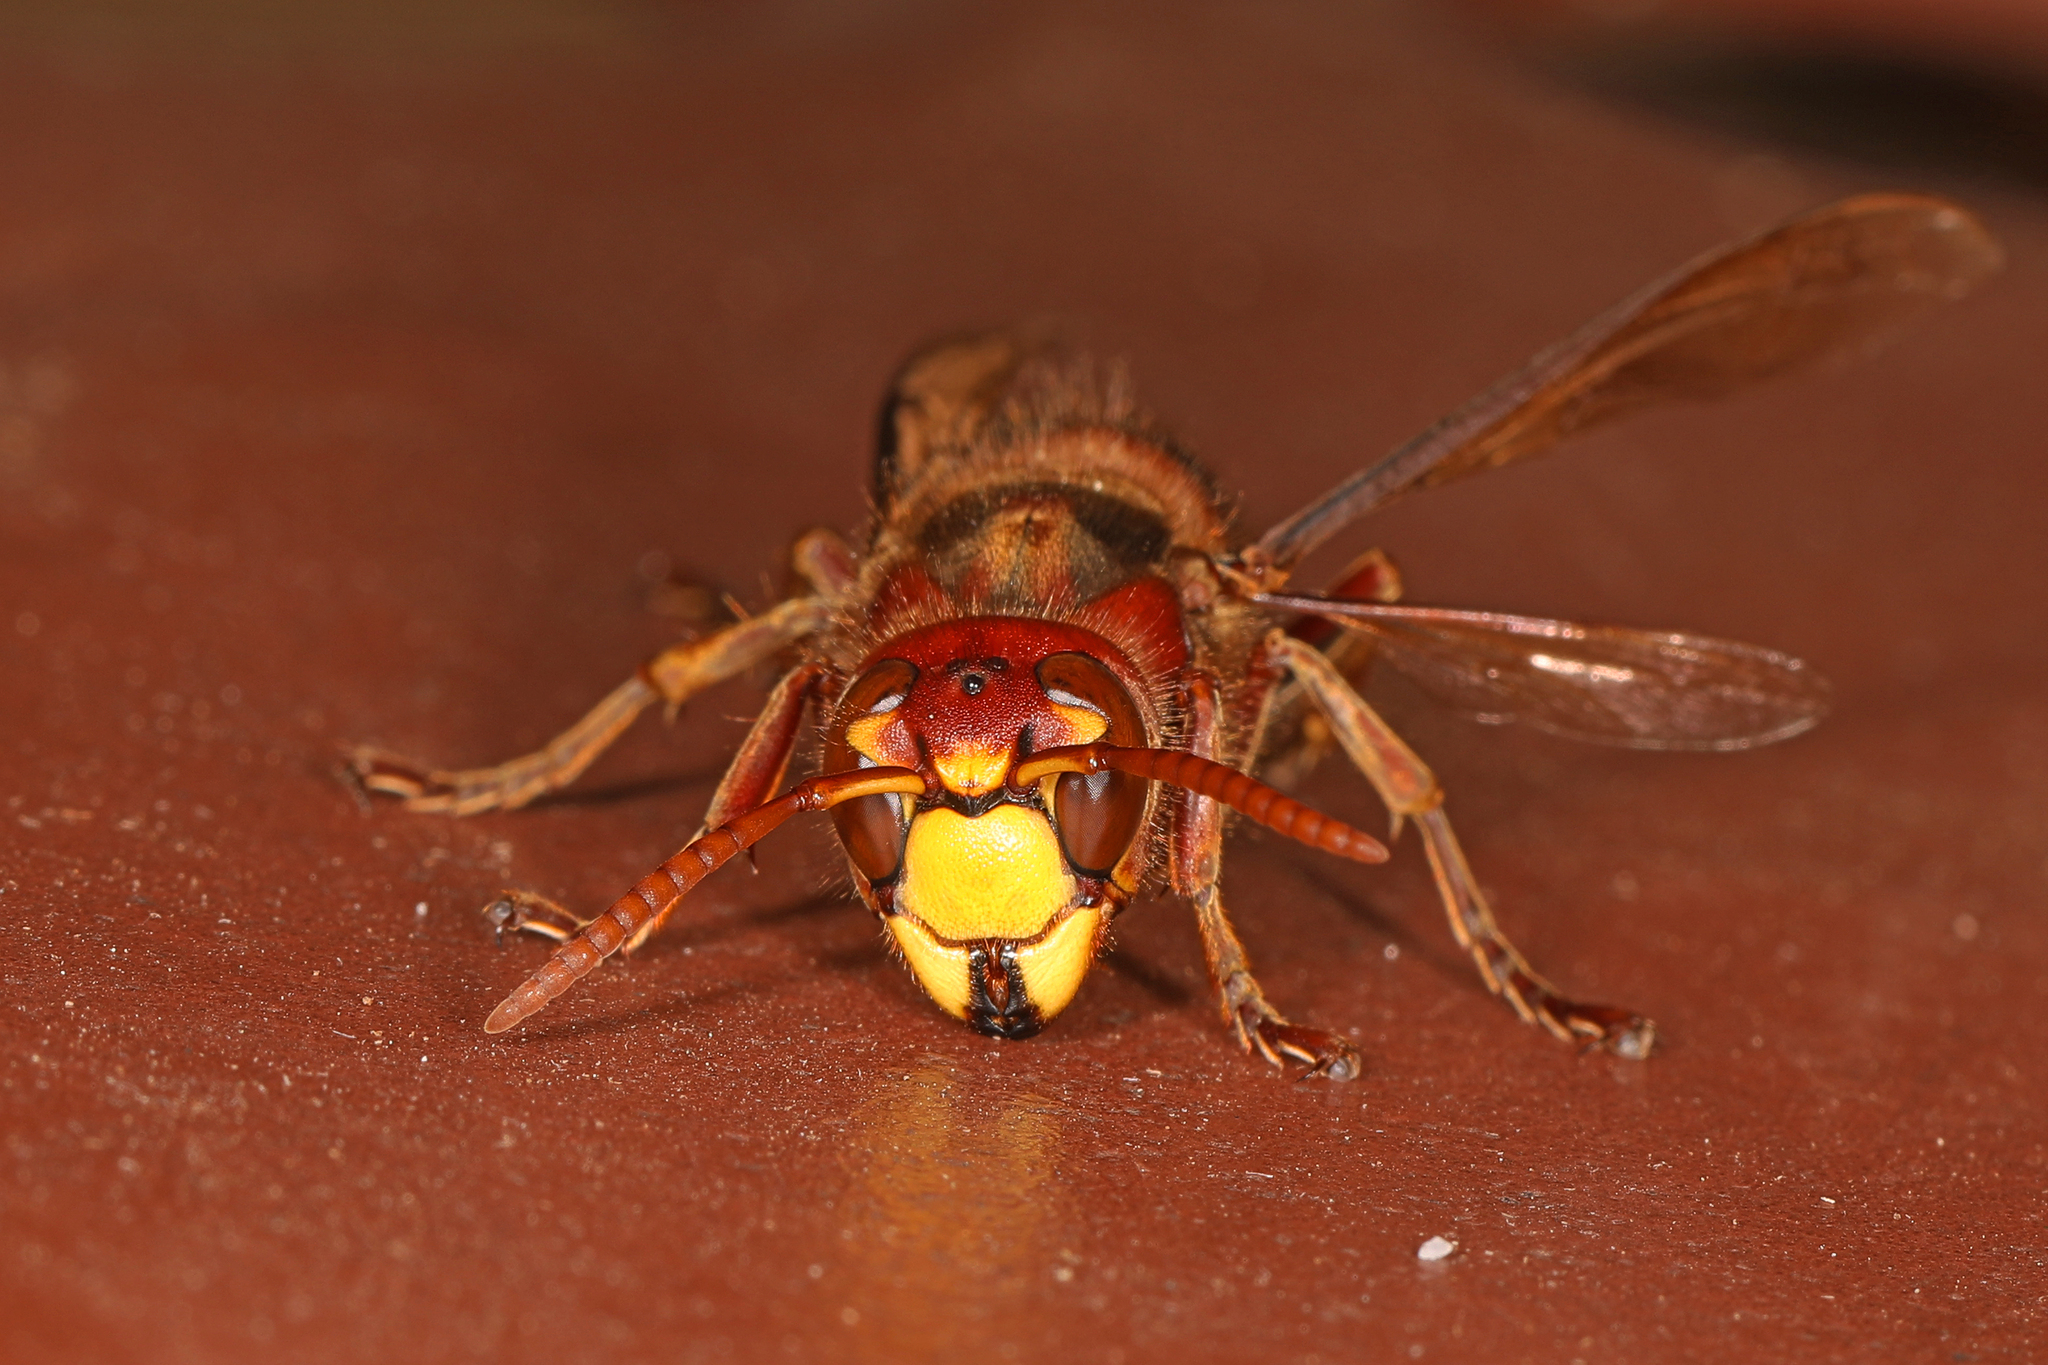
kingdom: Animalia
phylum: Arthropoda
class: Insecta
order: Hymenoptera
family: Vespidae
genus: Vespa
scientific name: Vespa crabro
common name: Hornet
